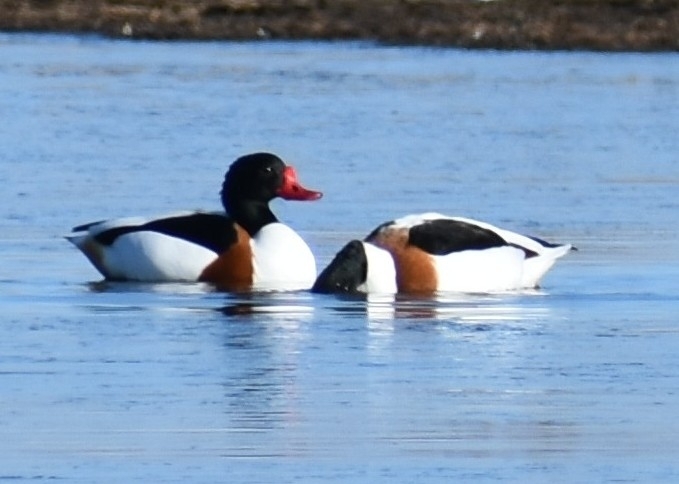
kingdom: Animalia
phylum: Chordata
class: Aves
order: Anseriformes
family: Anatidae
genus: Tadorna
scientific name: Tadorna tadorna
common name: Common shelduck
